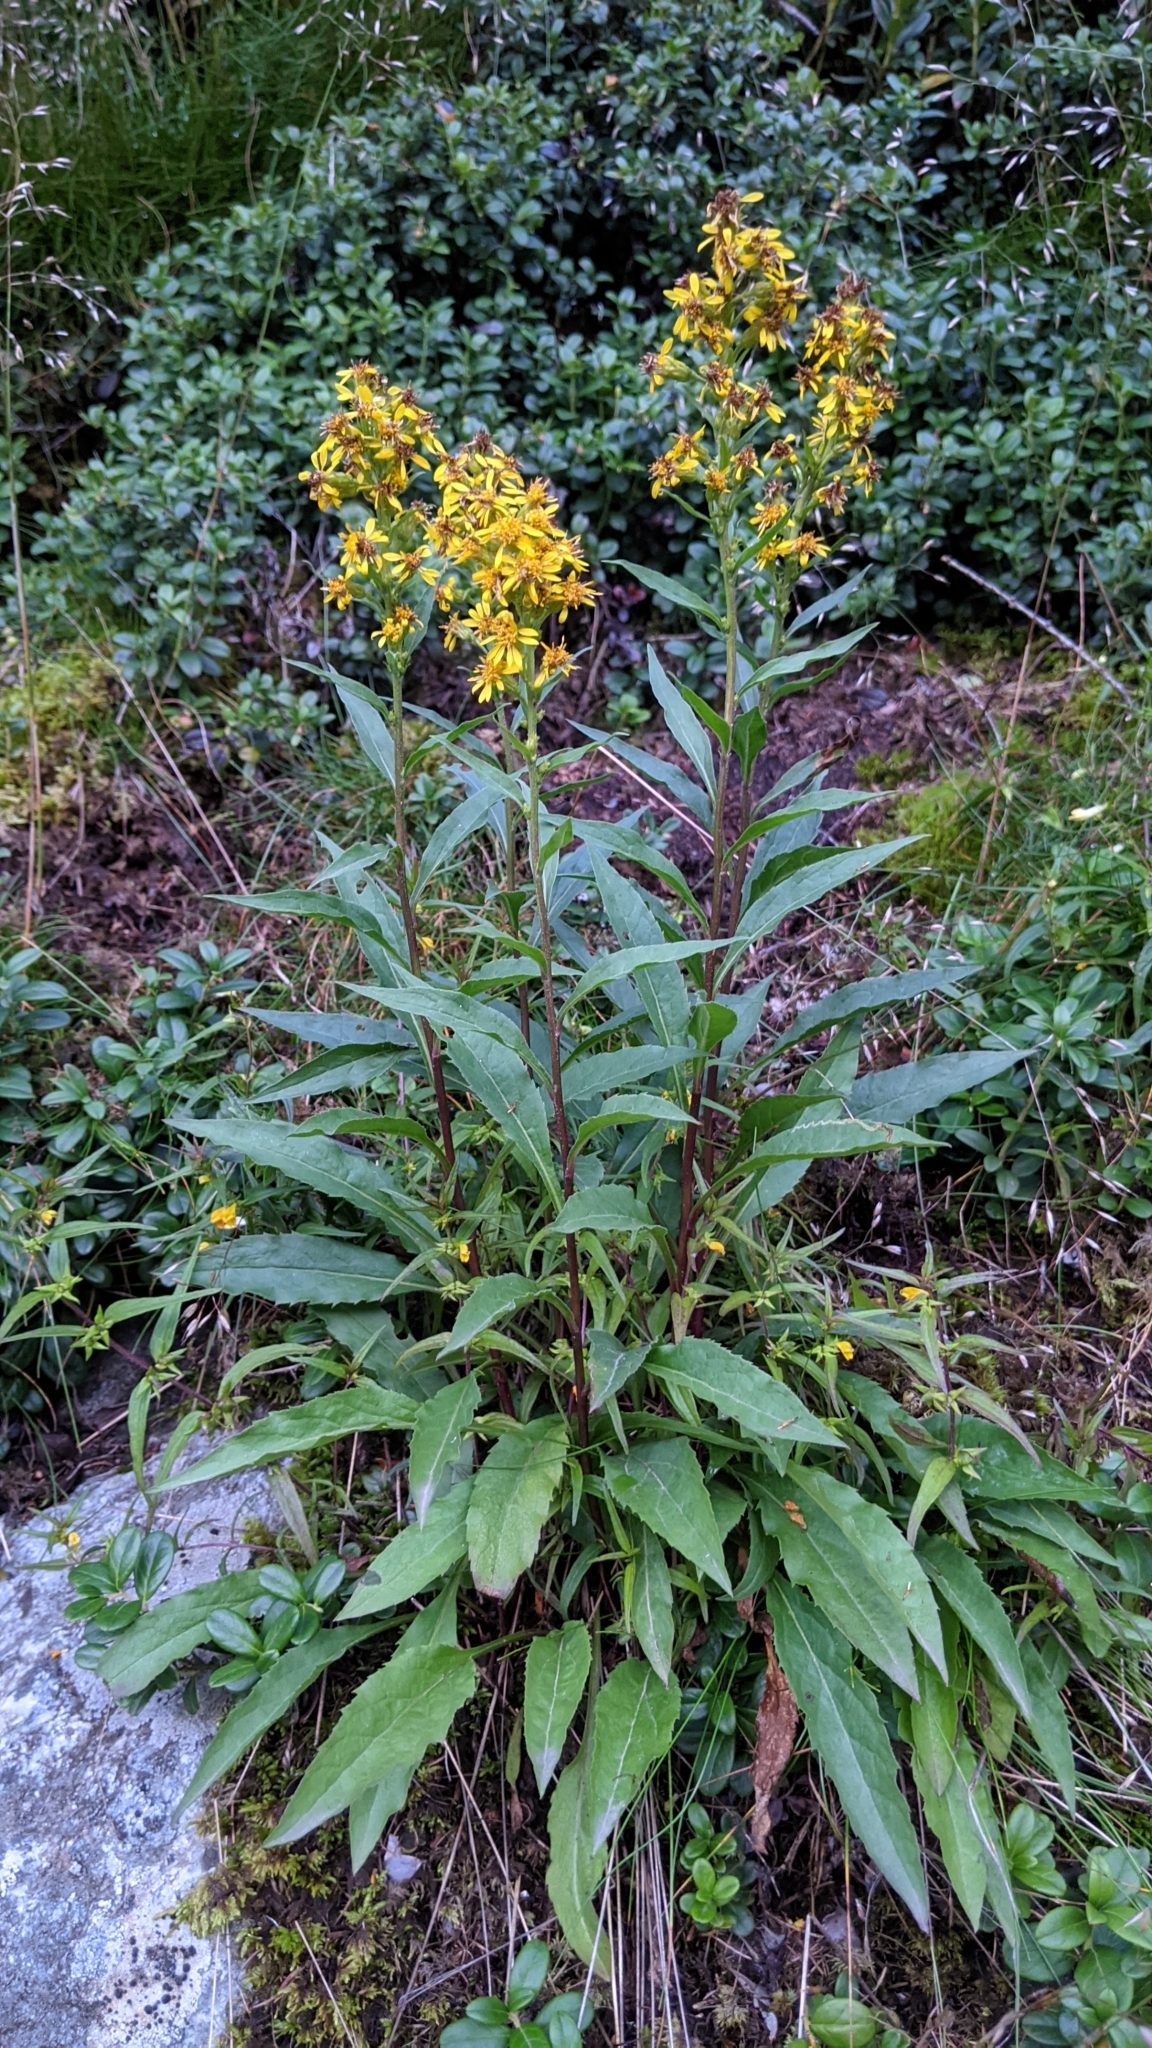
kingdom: Plantae
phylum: Tracheophyta
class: Magnoliopsida
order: Asterales
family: Asteraceae
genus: Solidago
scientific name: Solidago virgaurea
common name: Goldenrod
